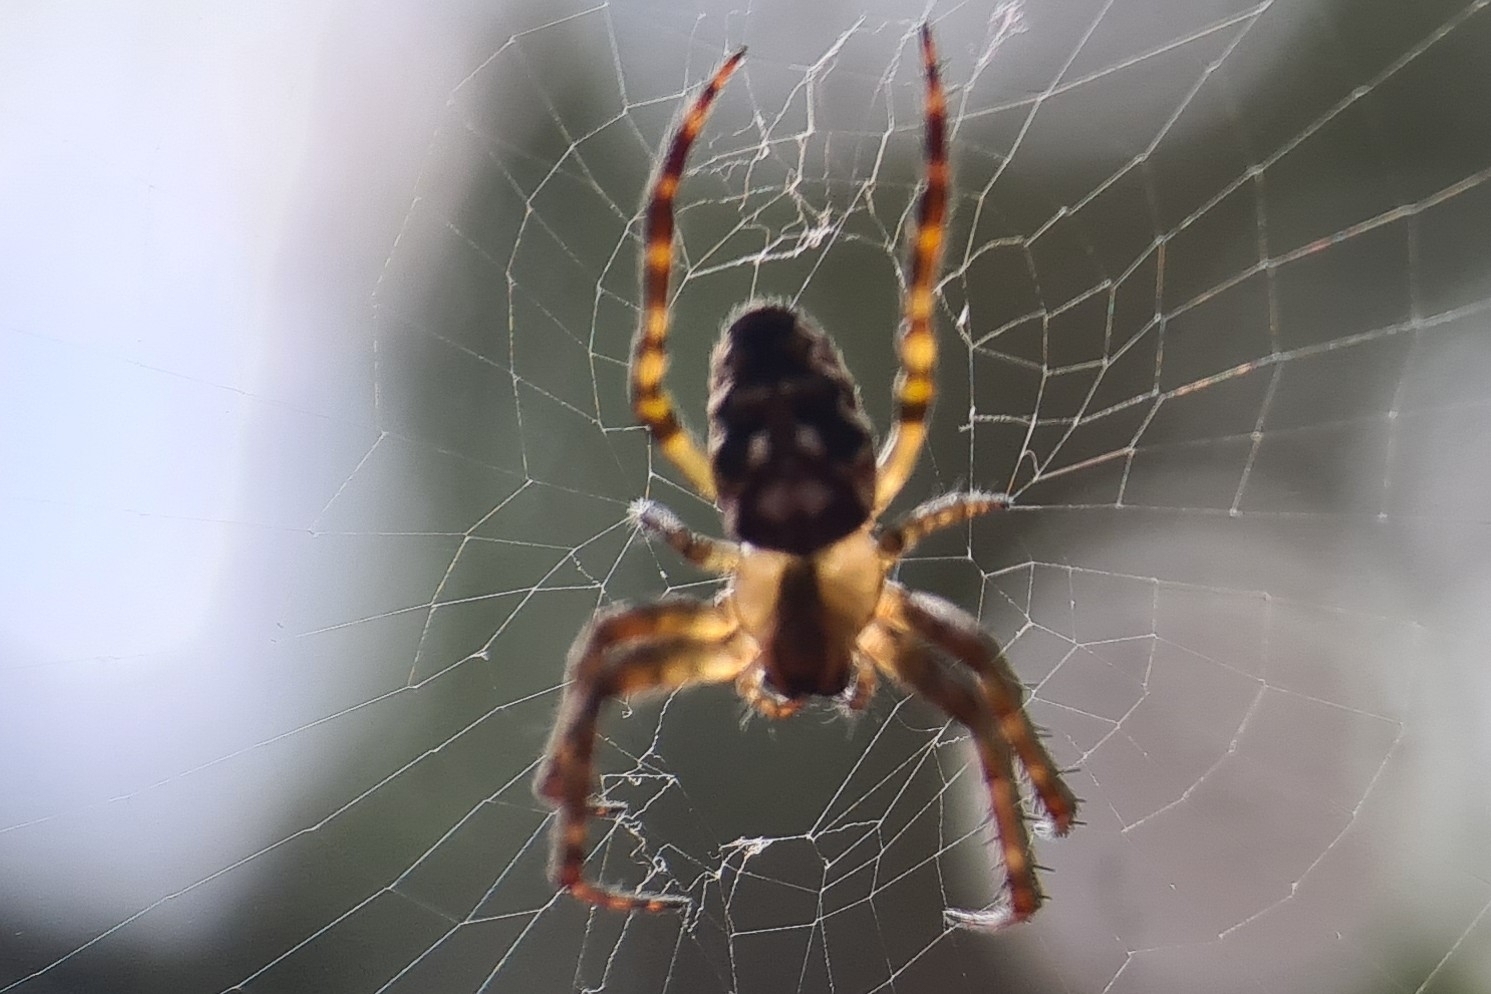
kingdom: Animalia
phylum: Arthropoda
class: Arachnida
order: Araneae
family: Araneidae
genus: Plebs
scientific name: Plebs eburnus
